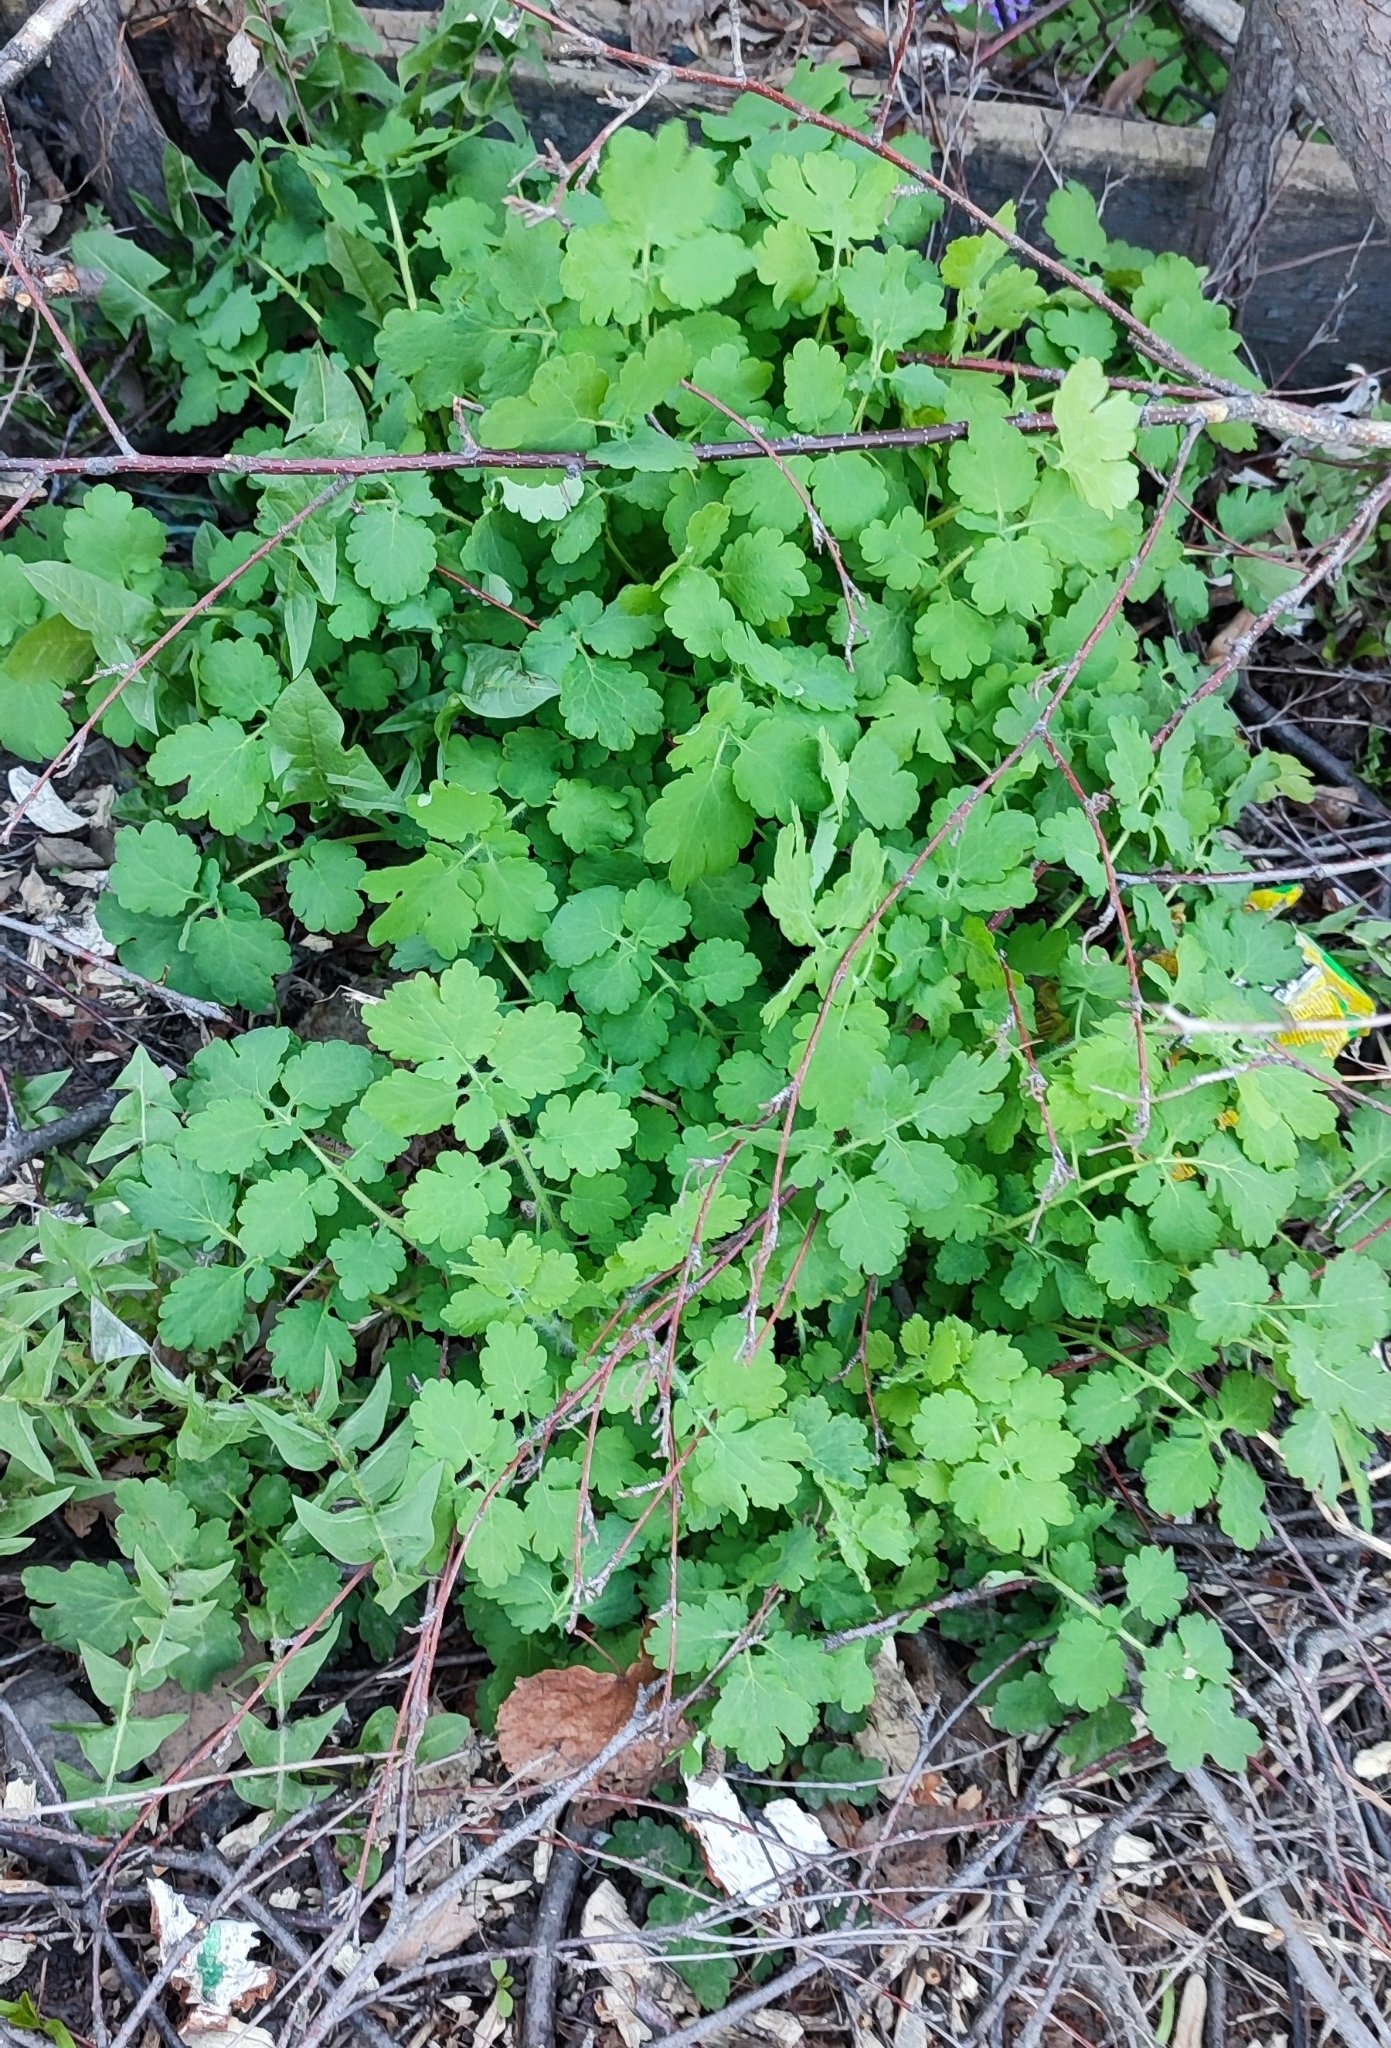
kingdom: Plantae
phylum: Tracheophyta
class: Magnoliopsida
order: Ranunculales
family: Papaveraceae
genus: Chelidonium
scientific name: Chelidonium majus
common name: Greater celandine
